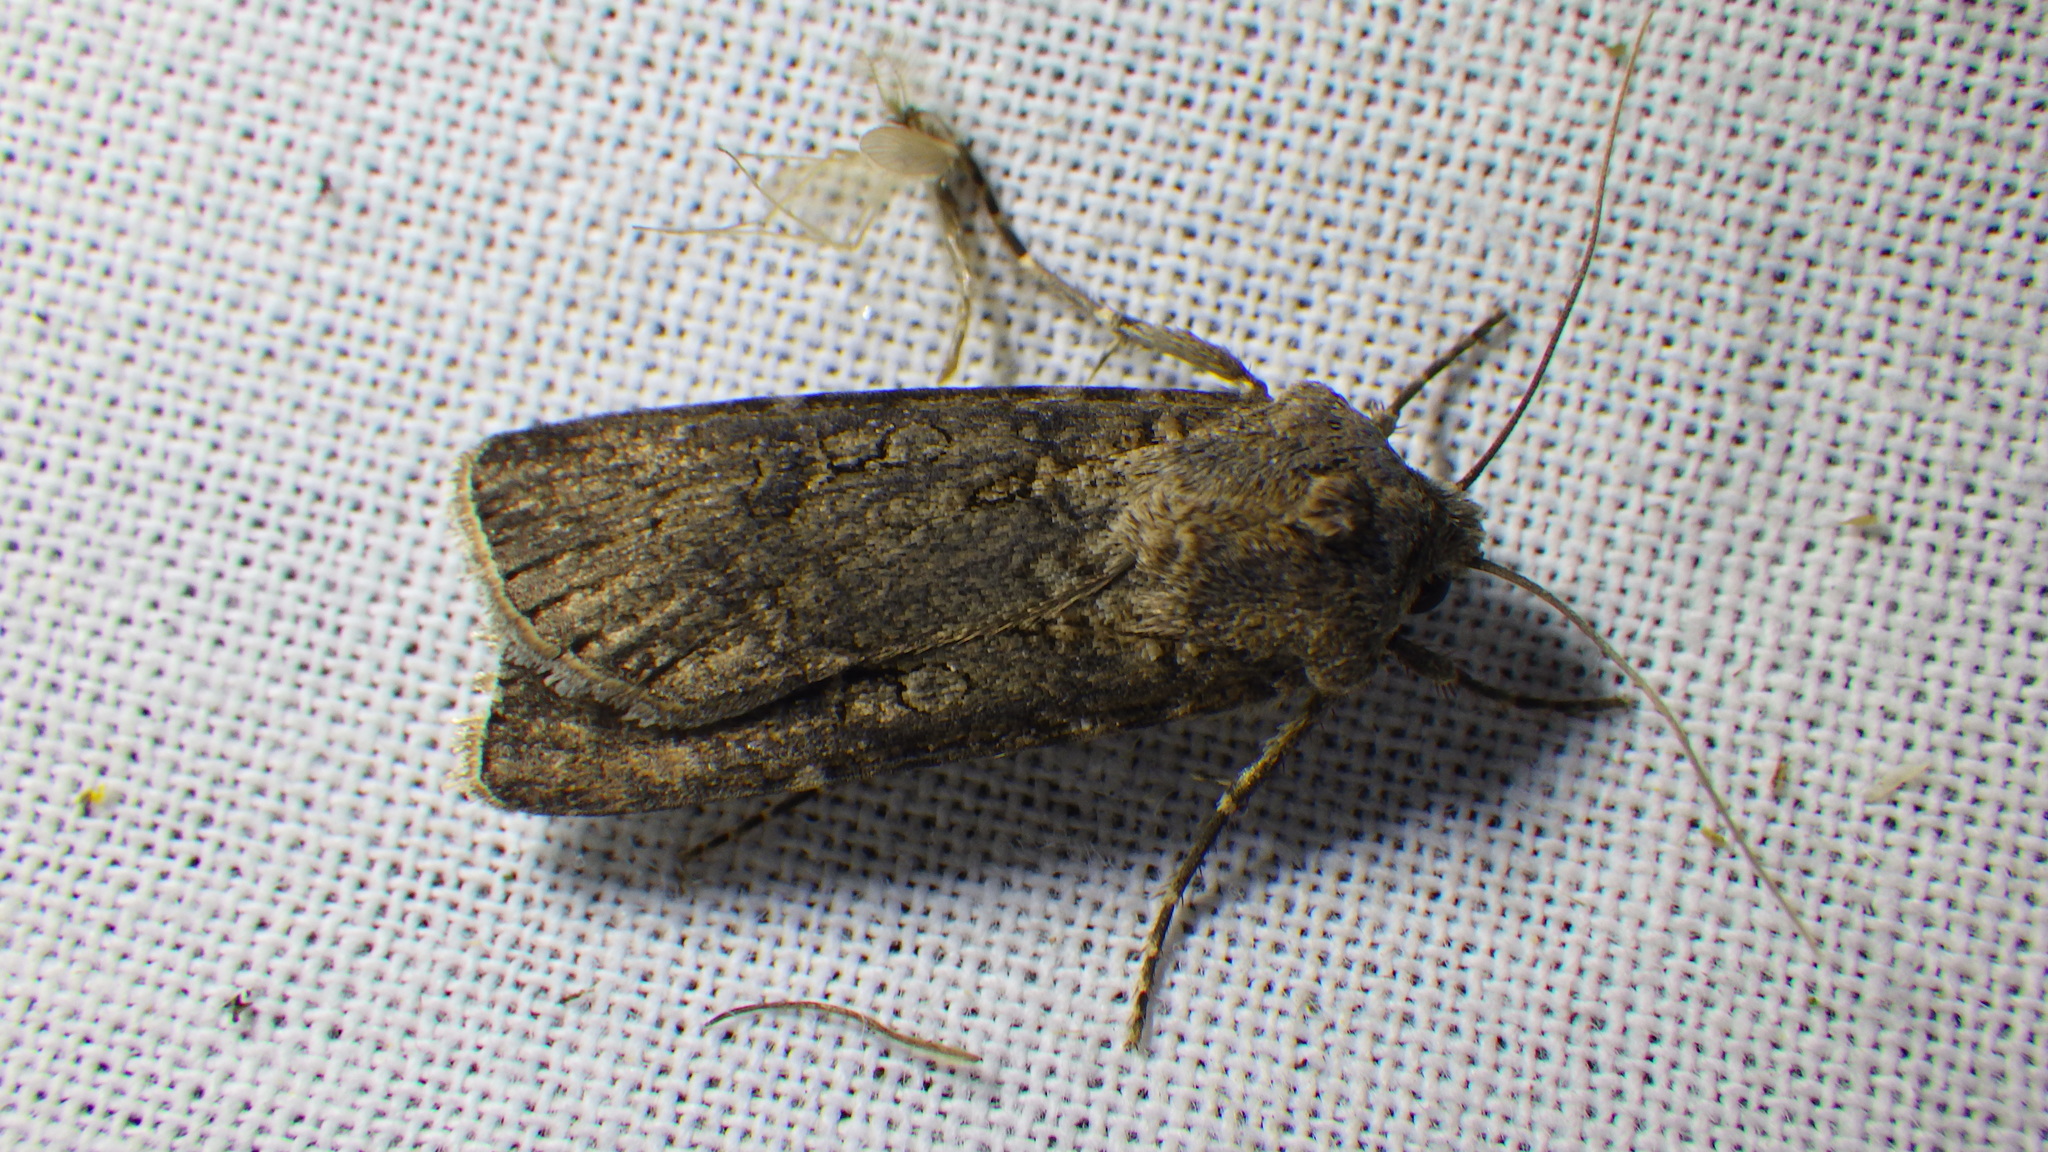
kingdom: Animalia
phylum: Arthropoda
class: Insecta
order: Lepidoptera
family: Noctuidae
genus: Agrotis
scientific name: Agrotis segetum
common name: Turnip moth
